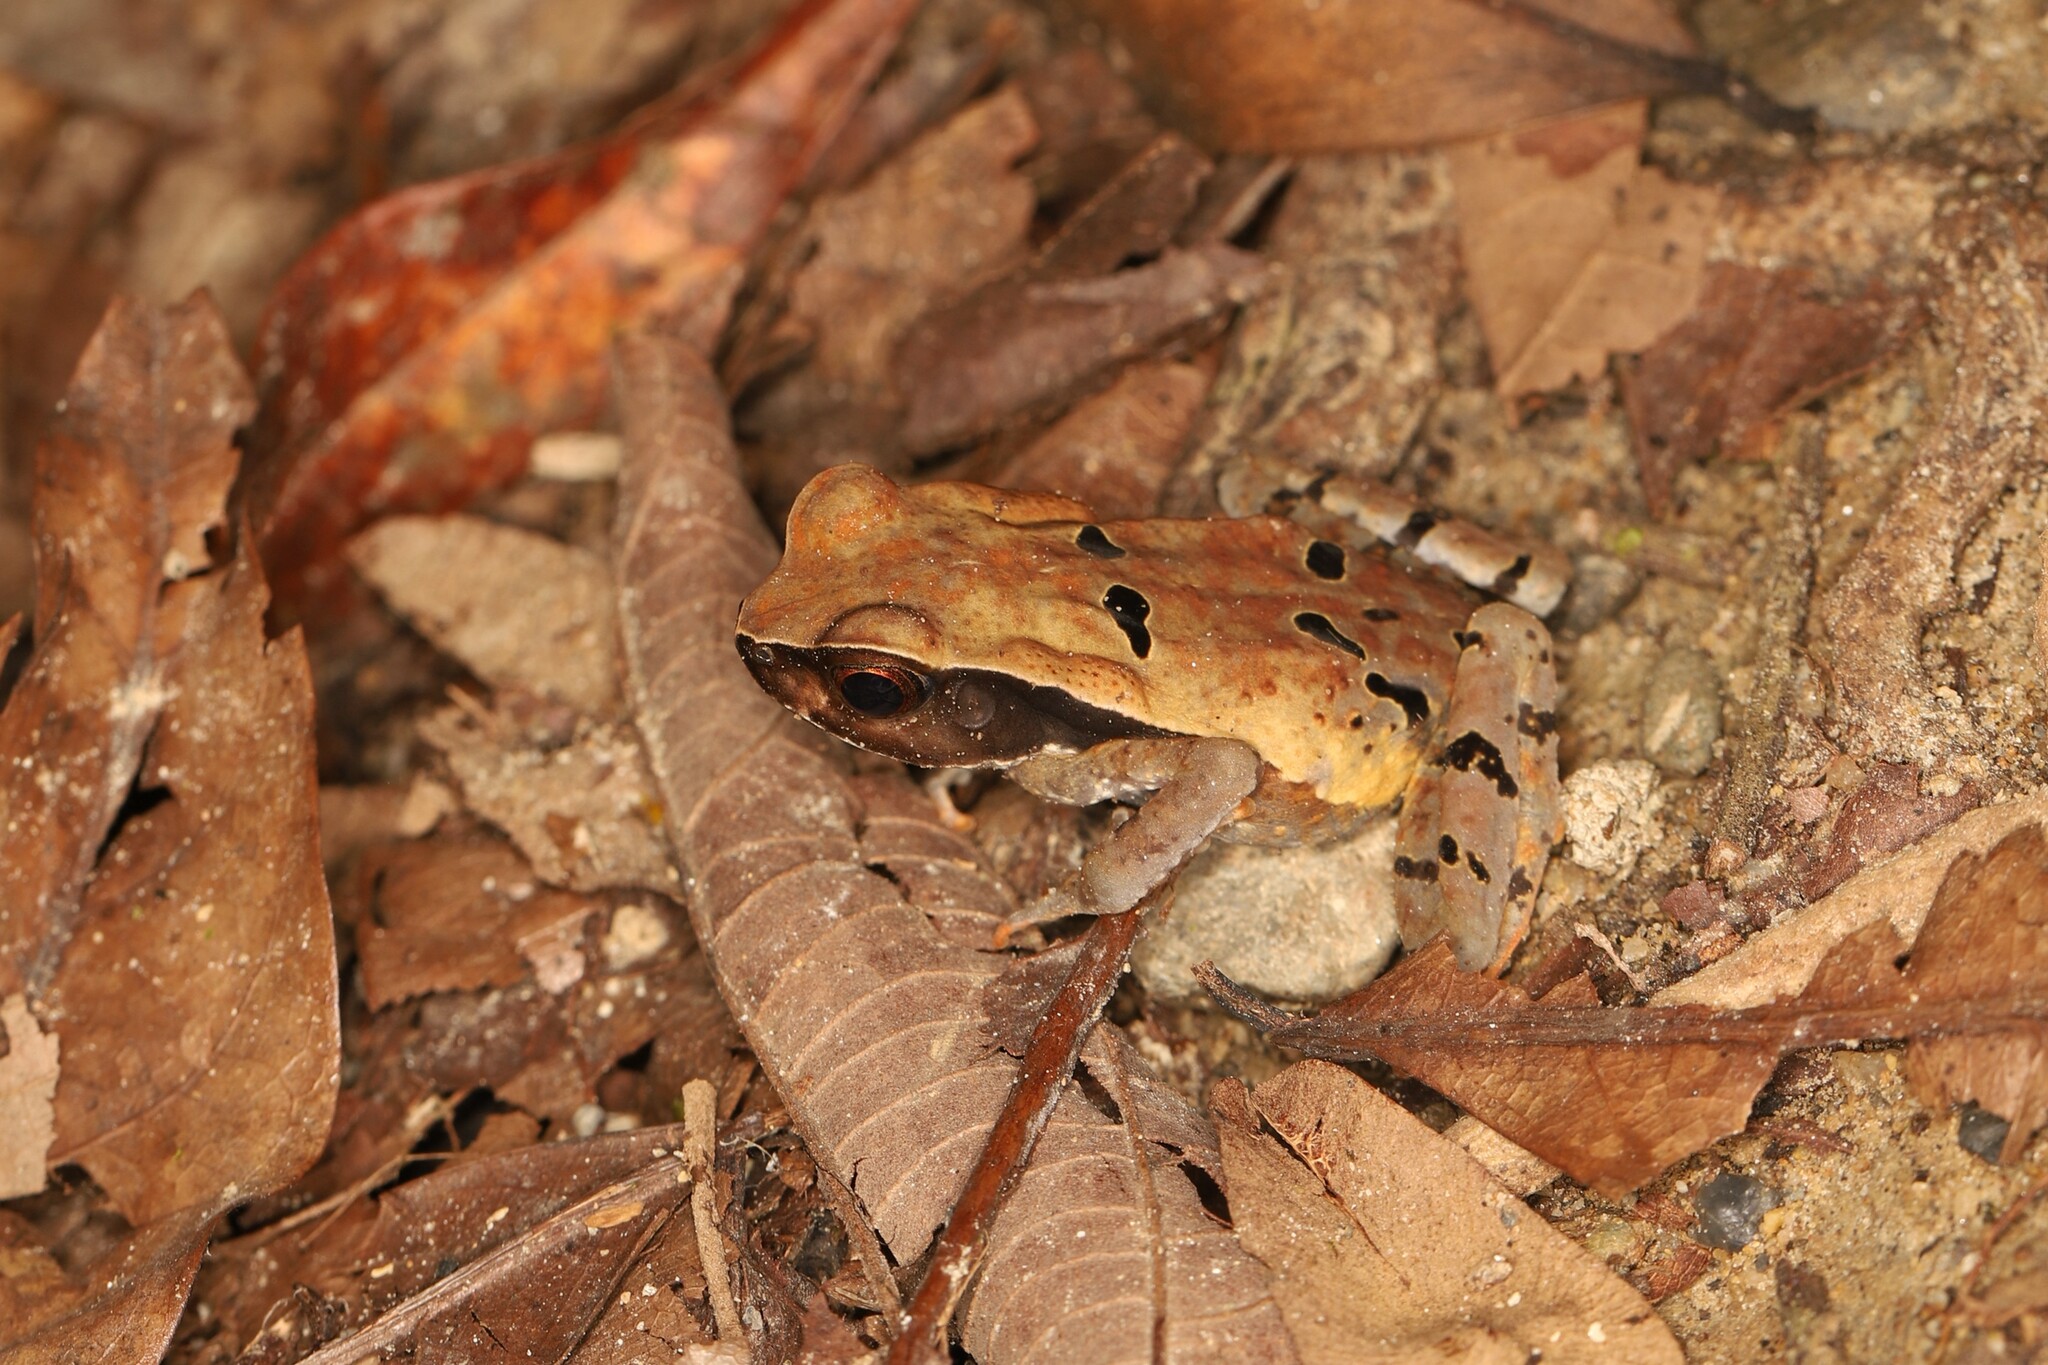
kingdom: Animalia
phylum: Chordata
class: Amphibia
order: Anura
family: Bufonidae
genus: Rhaebo
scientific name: Rhaebo haematiticus
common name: Truando toad
